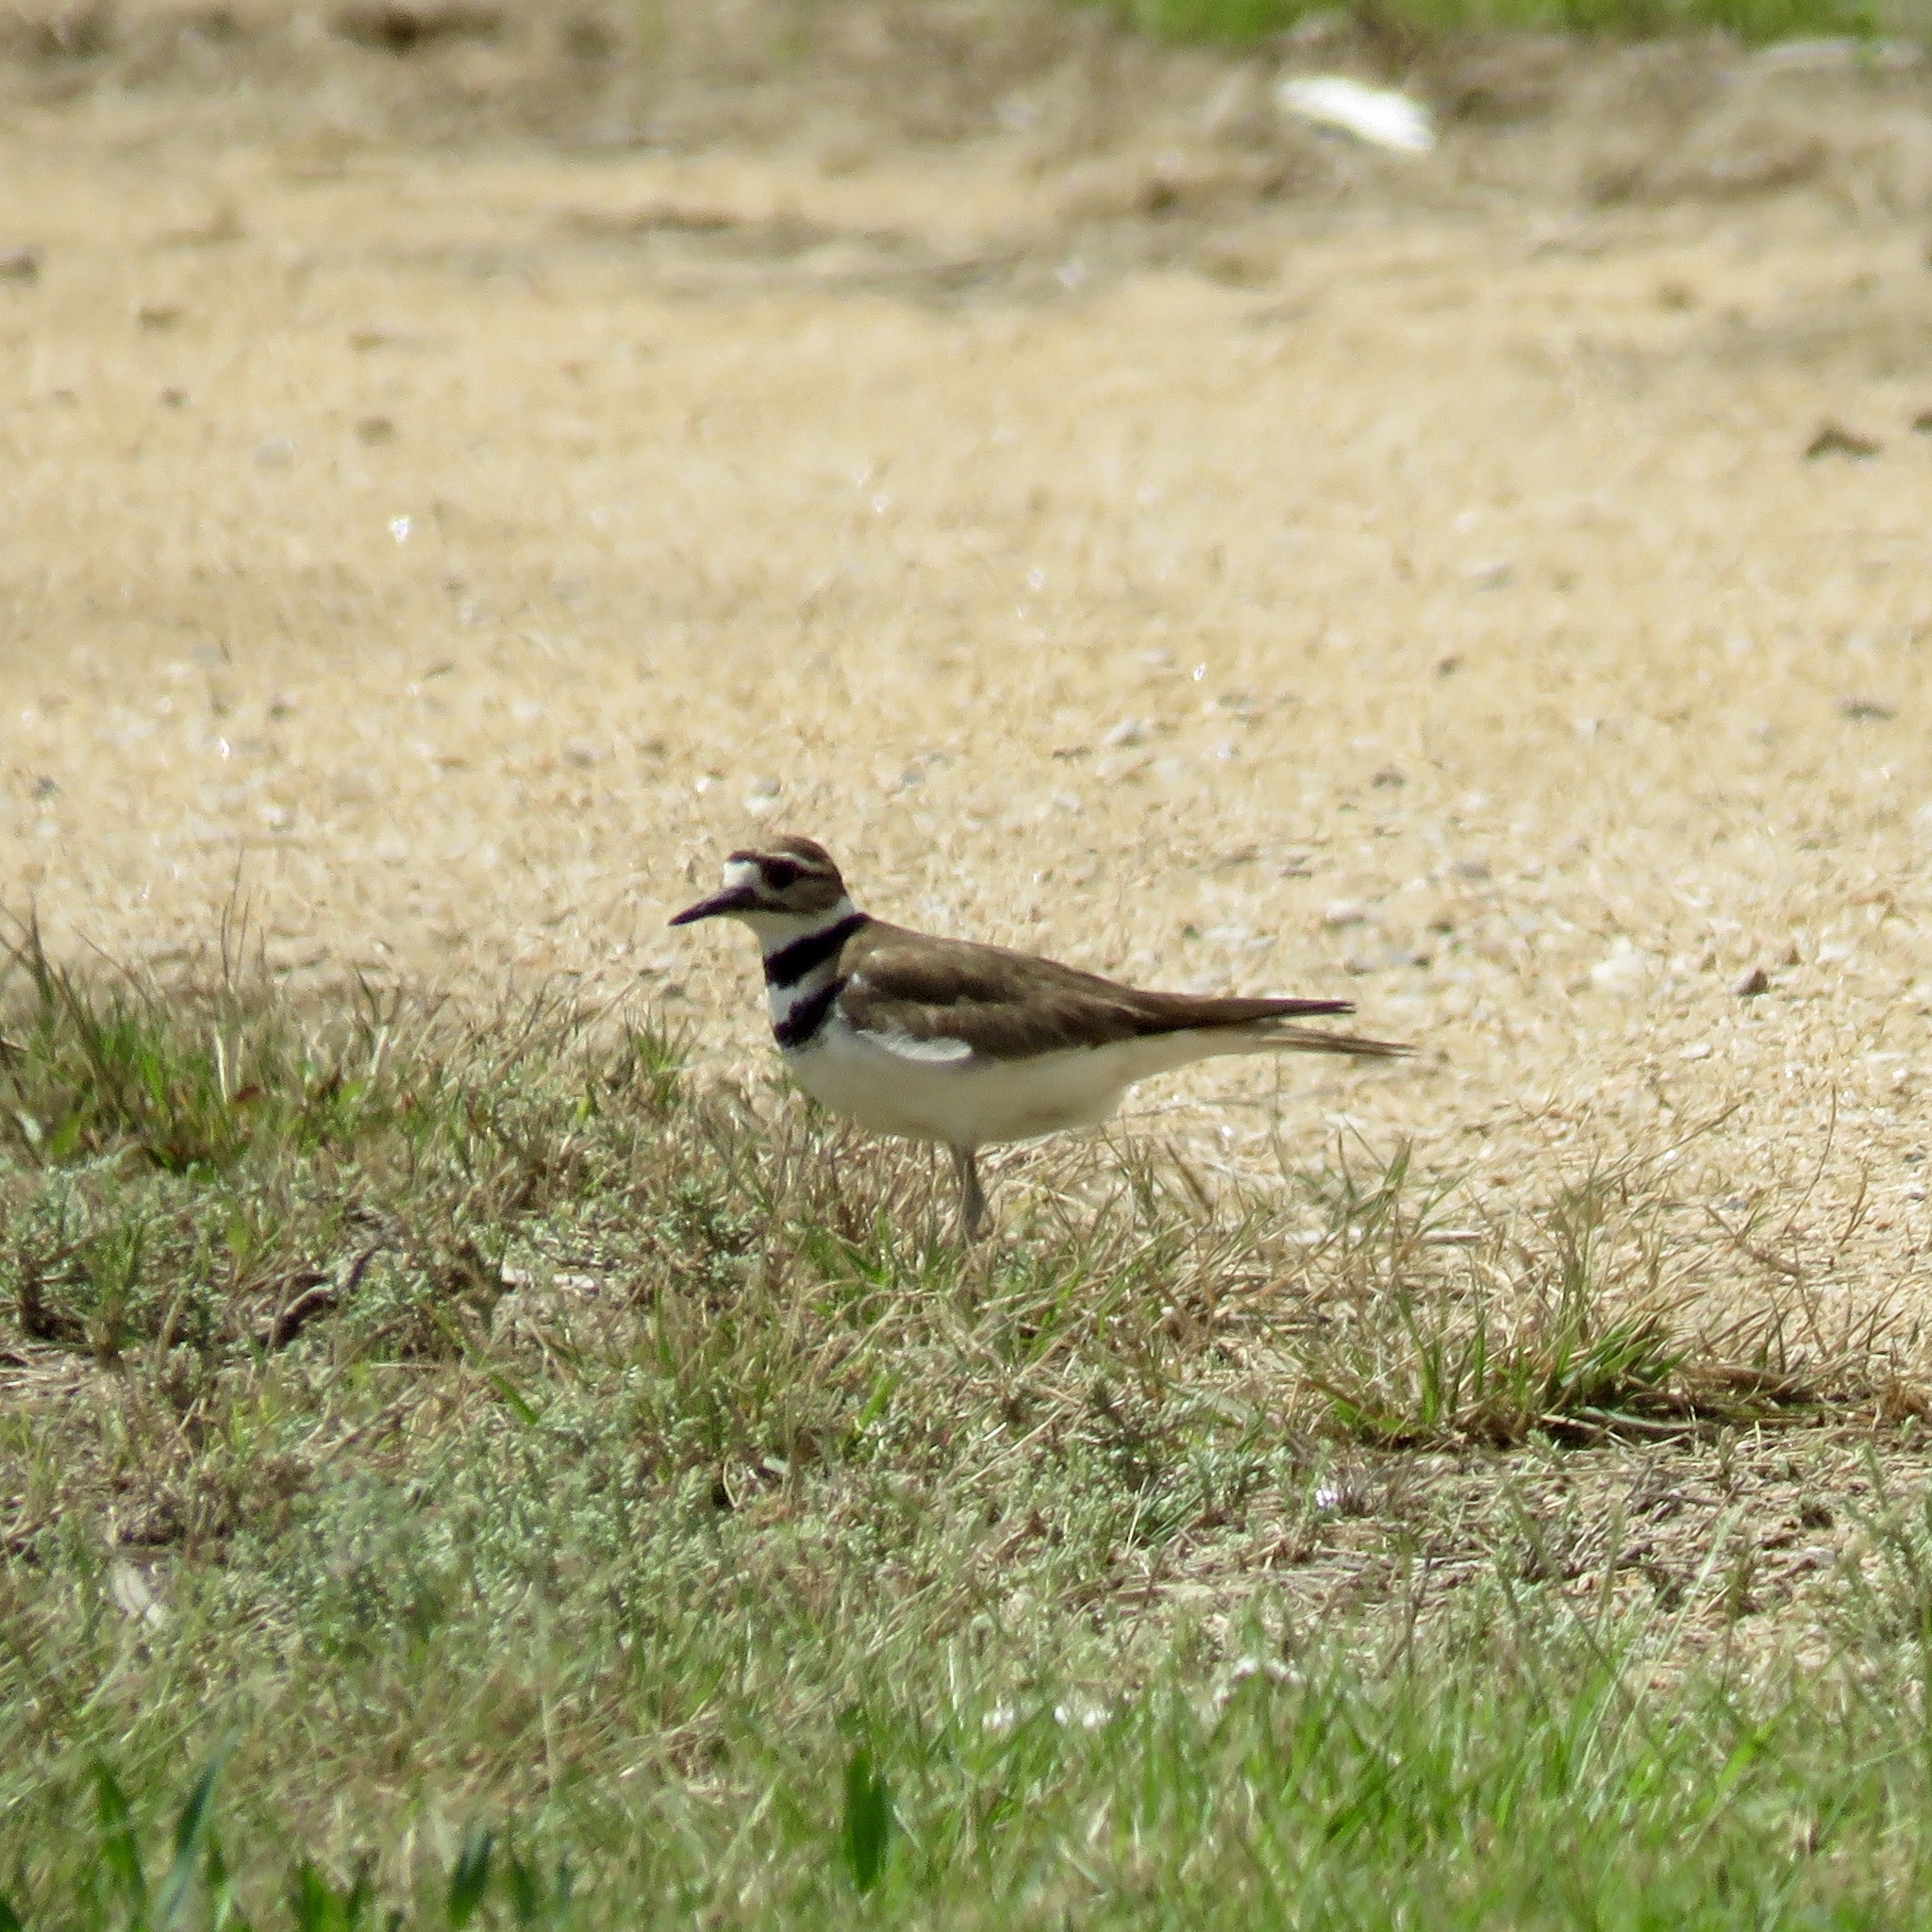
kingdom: Animalia
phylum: Chordata
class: Aves
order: Charadriiformes
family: Charadriidae
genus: Charadrius
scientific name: Charadrius vociferus
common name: Killdeer
